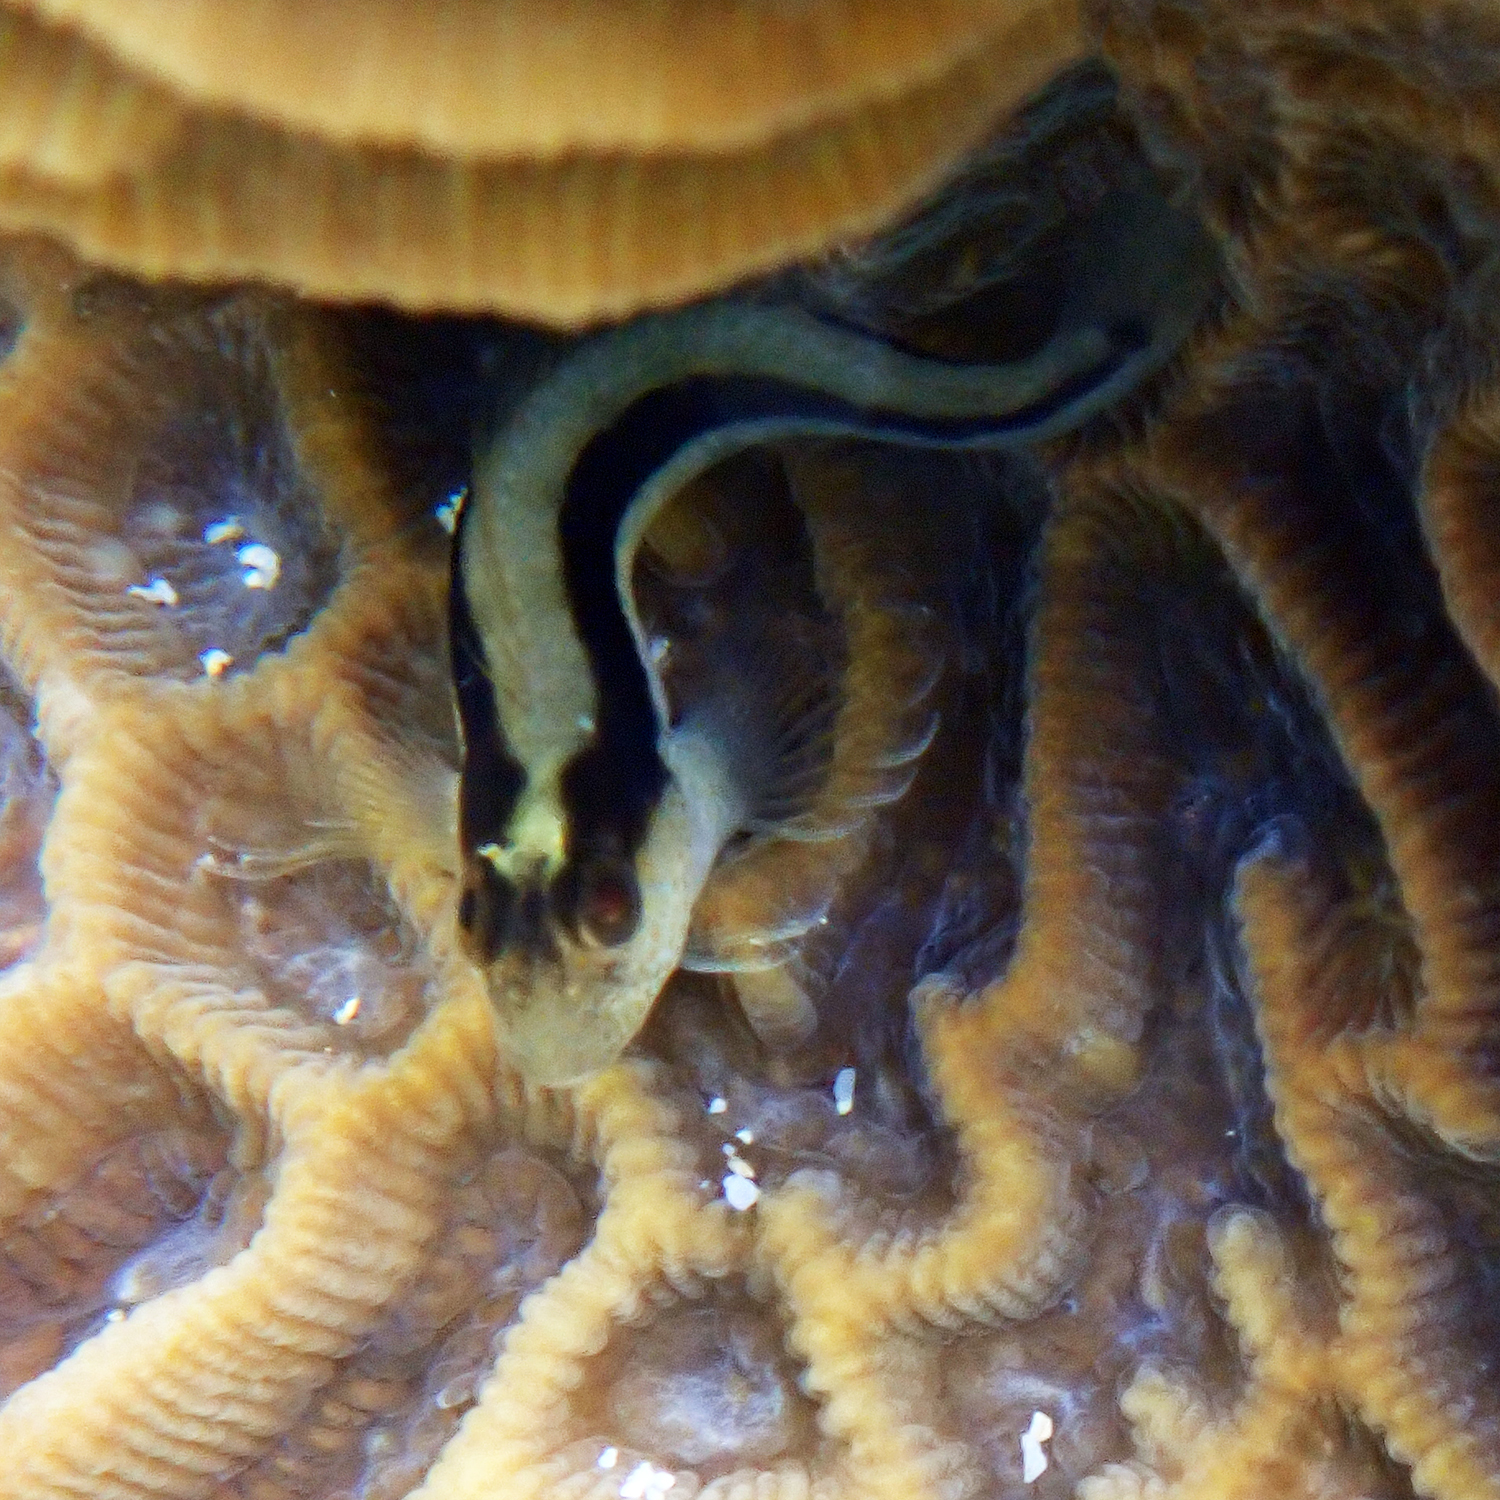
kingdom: Animalia
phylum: Chordata
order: Perciformes
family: Blenniidae
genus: Parablennius
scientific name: Parablennius serratolineatus
